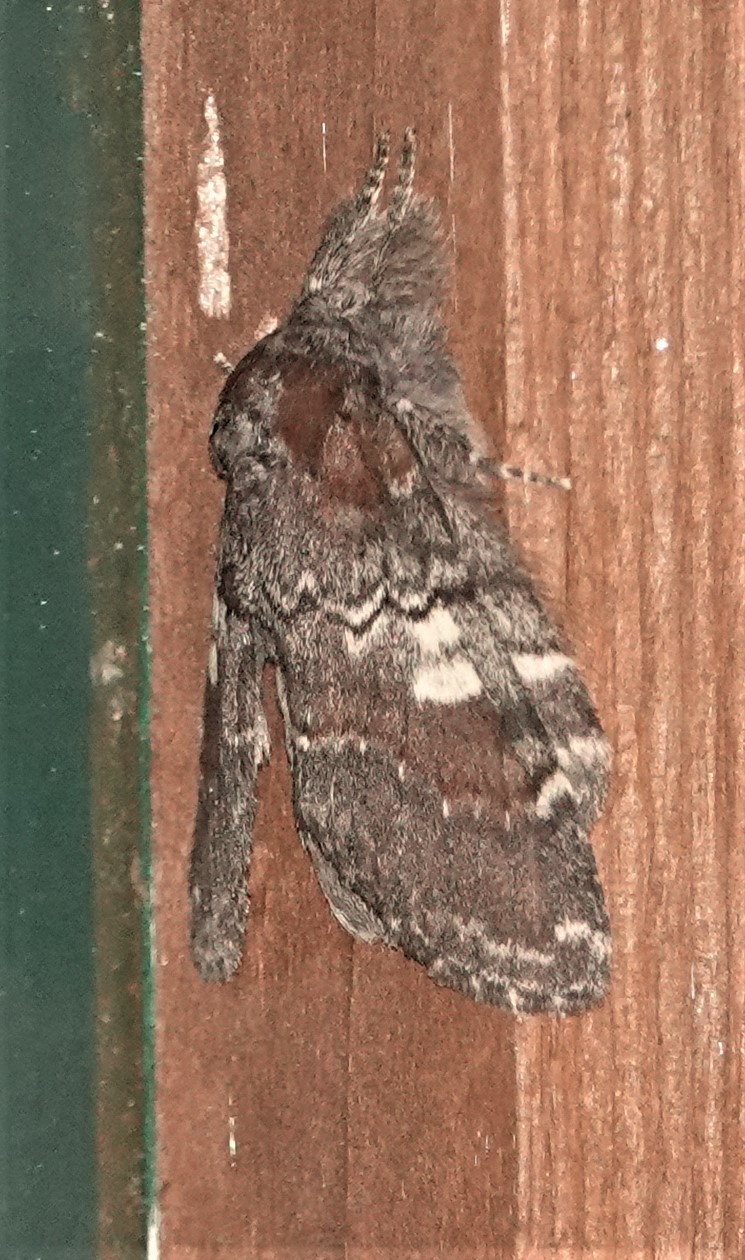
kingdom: Animalia
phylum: Arthropoda
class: Insecta
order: Lepidoptera
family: Notodontidae
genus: Peridea
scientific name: Peridea ferruginea
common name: Chocolate prominent
